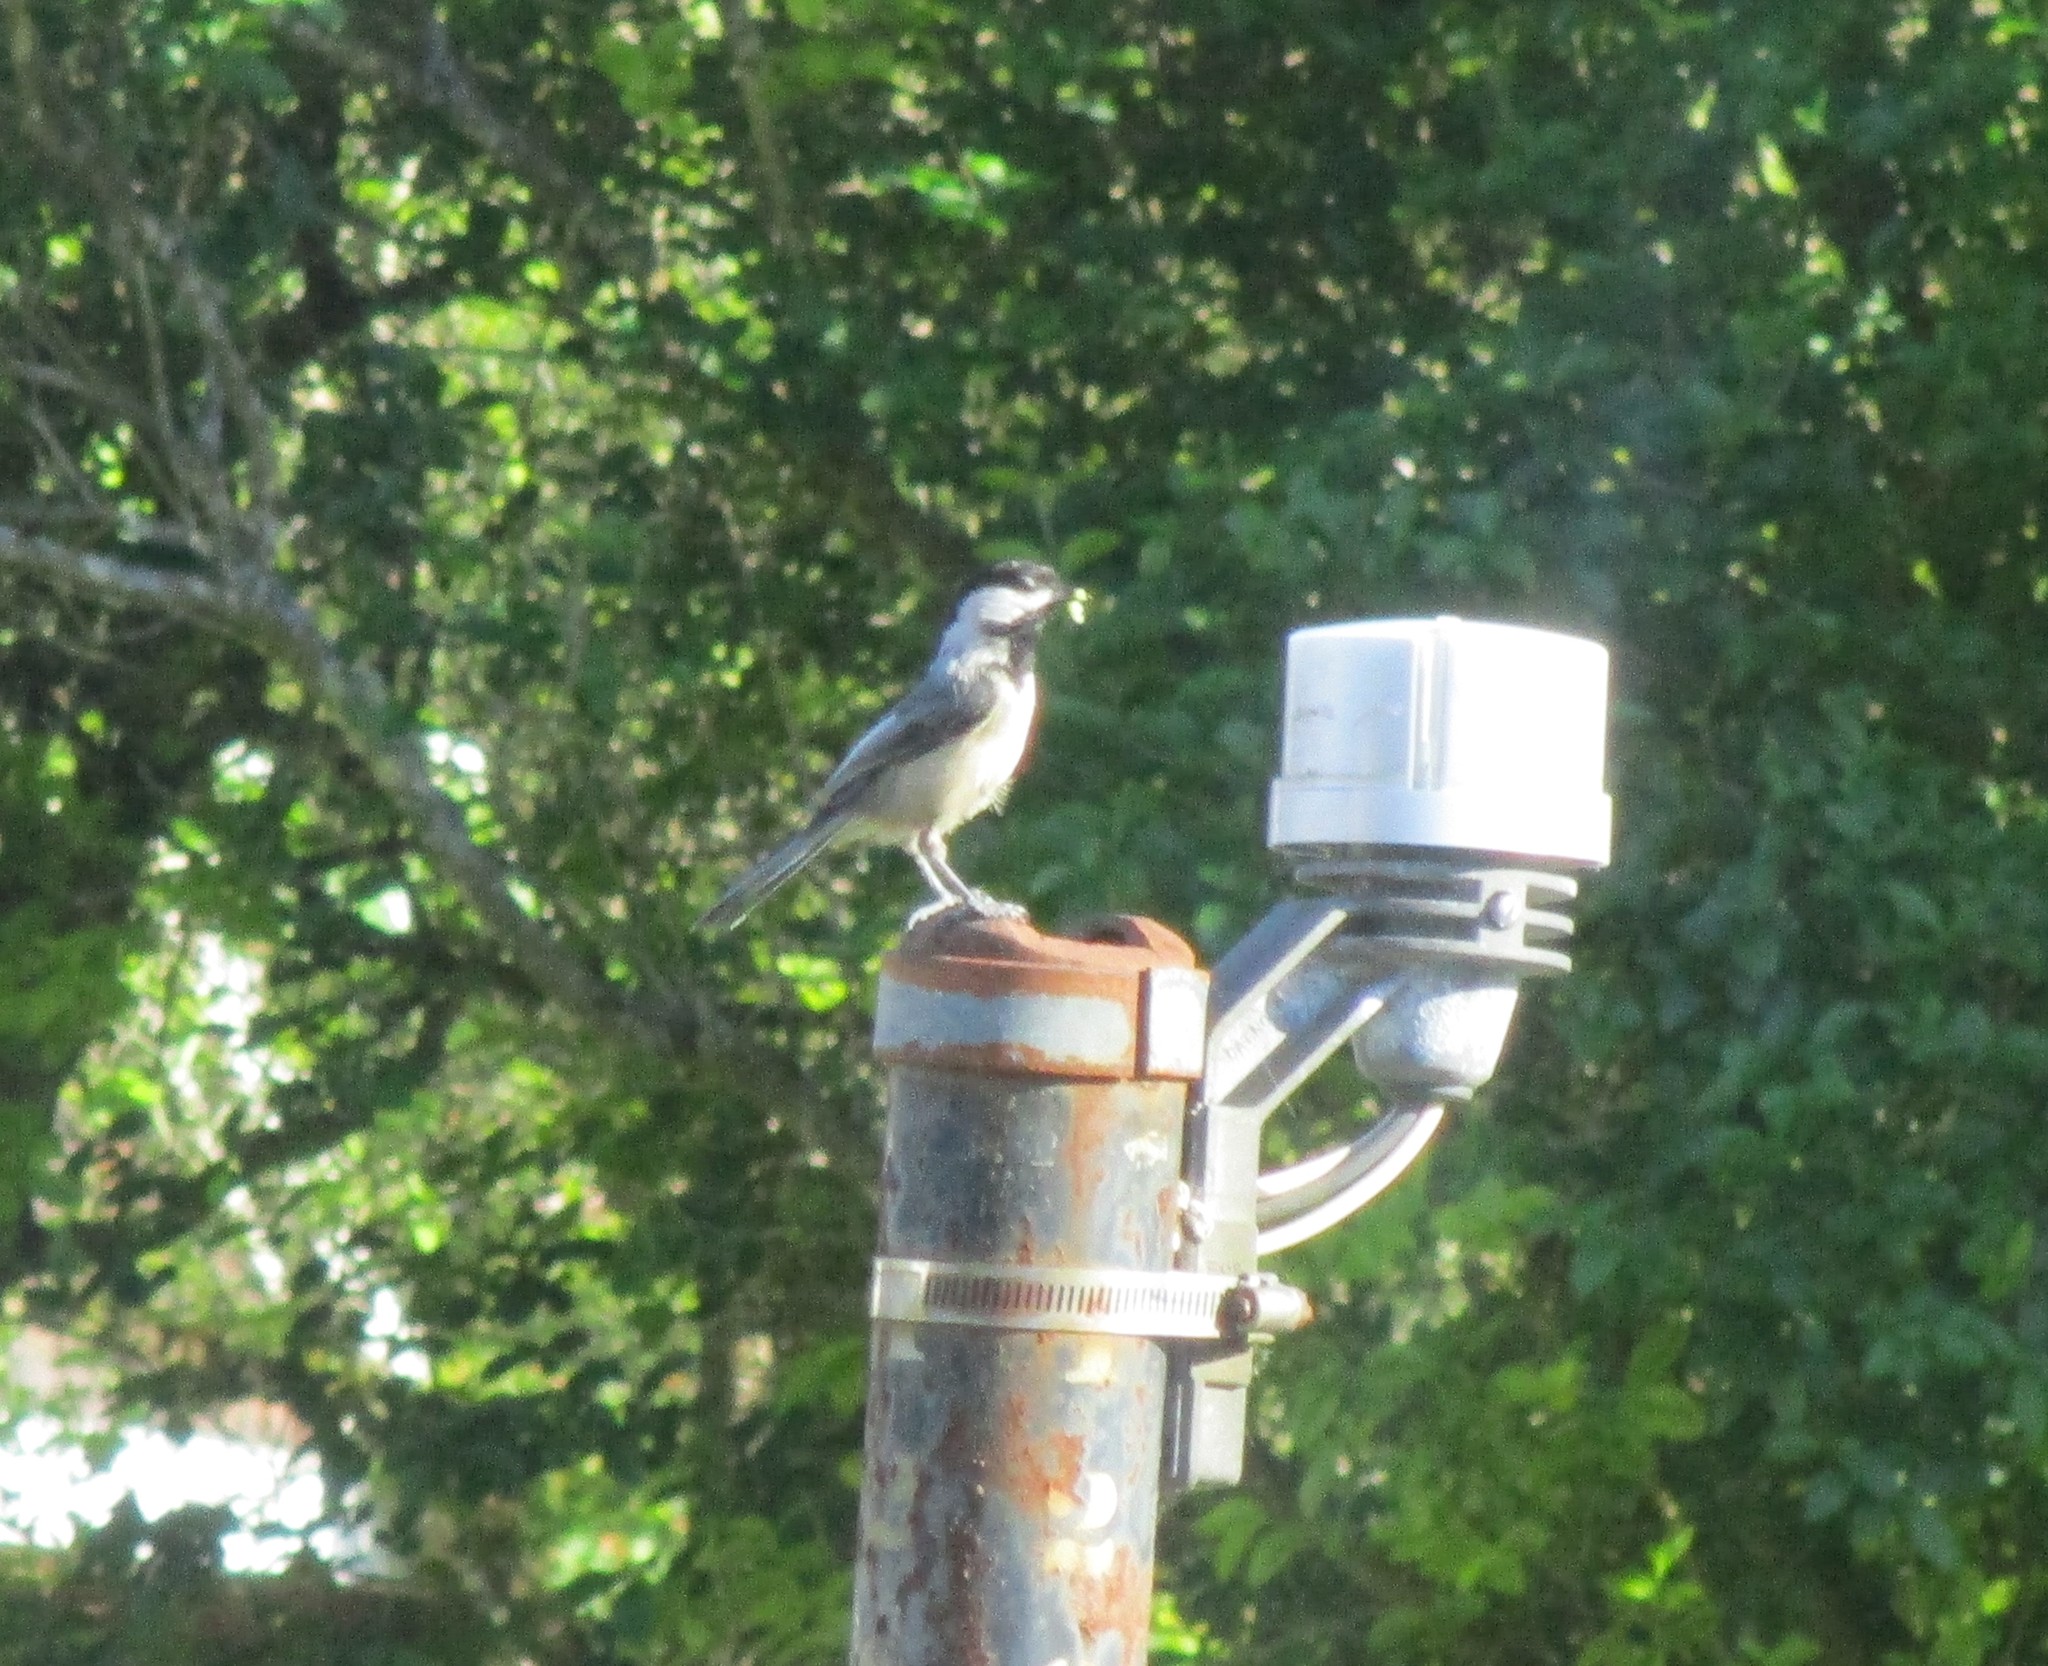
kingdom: Animalia
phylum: Chordata
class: Aves
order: Passeriformes
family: Paridae
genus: Poecile
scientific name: Poecile atricapillus
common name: Black-capped chickadee
